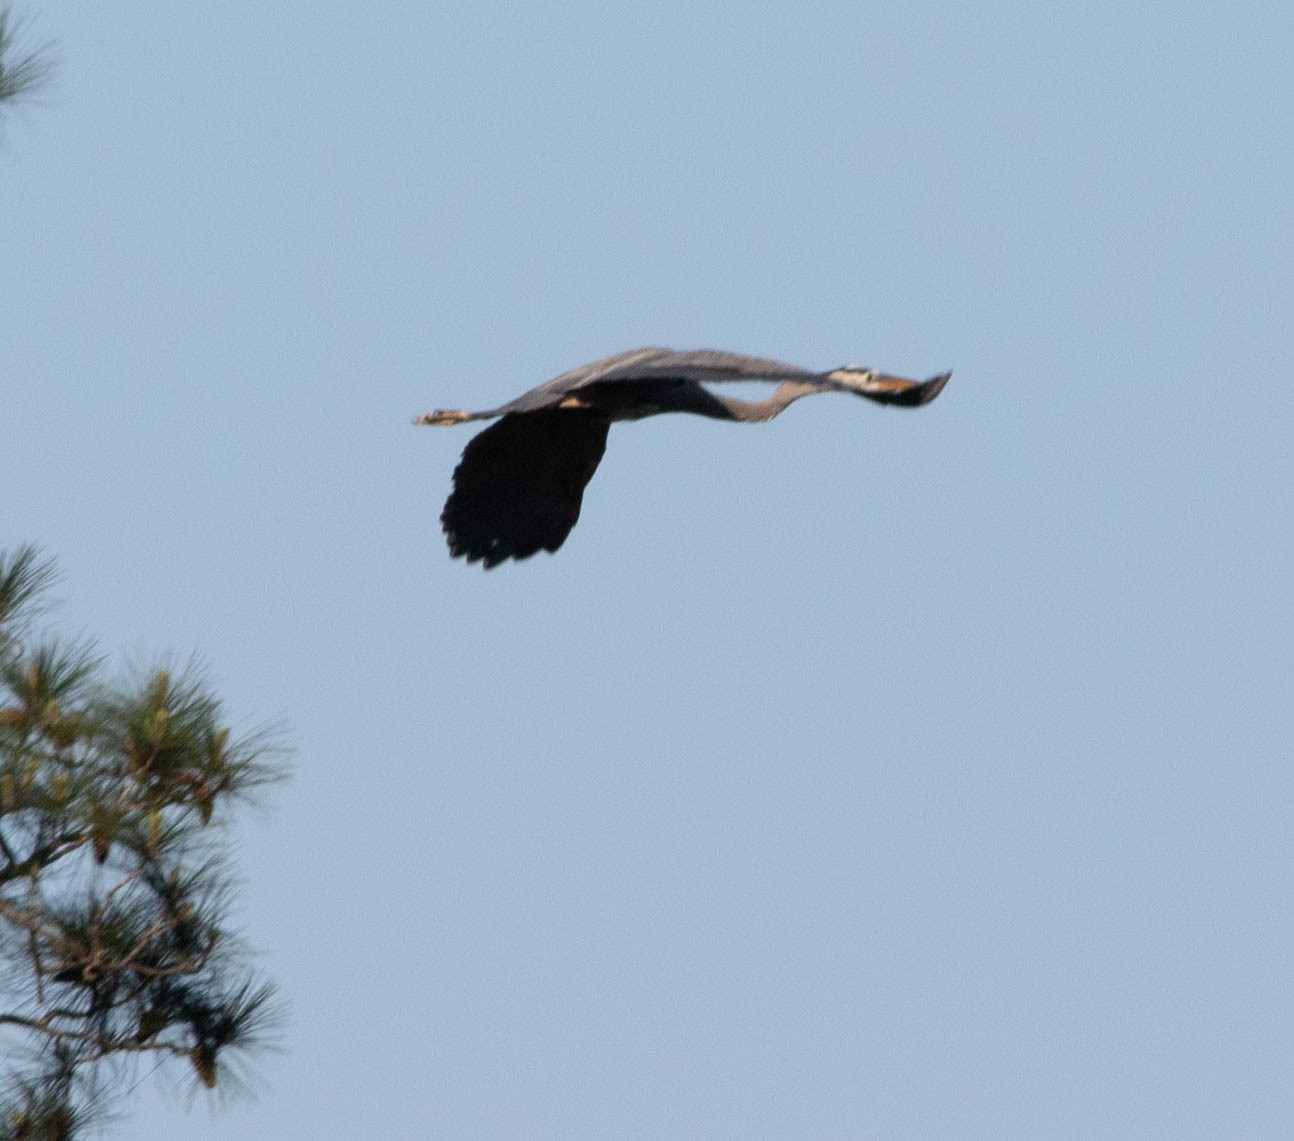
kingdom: Animalia
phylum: Chordata
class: Aves
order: Pelecaniformes
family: Ardeidae
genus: Ardea
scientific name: Ardea herodias
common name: Great blue heron
